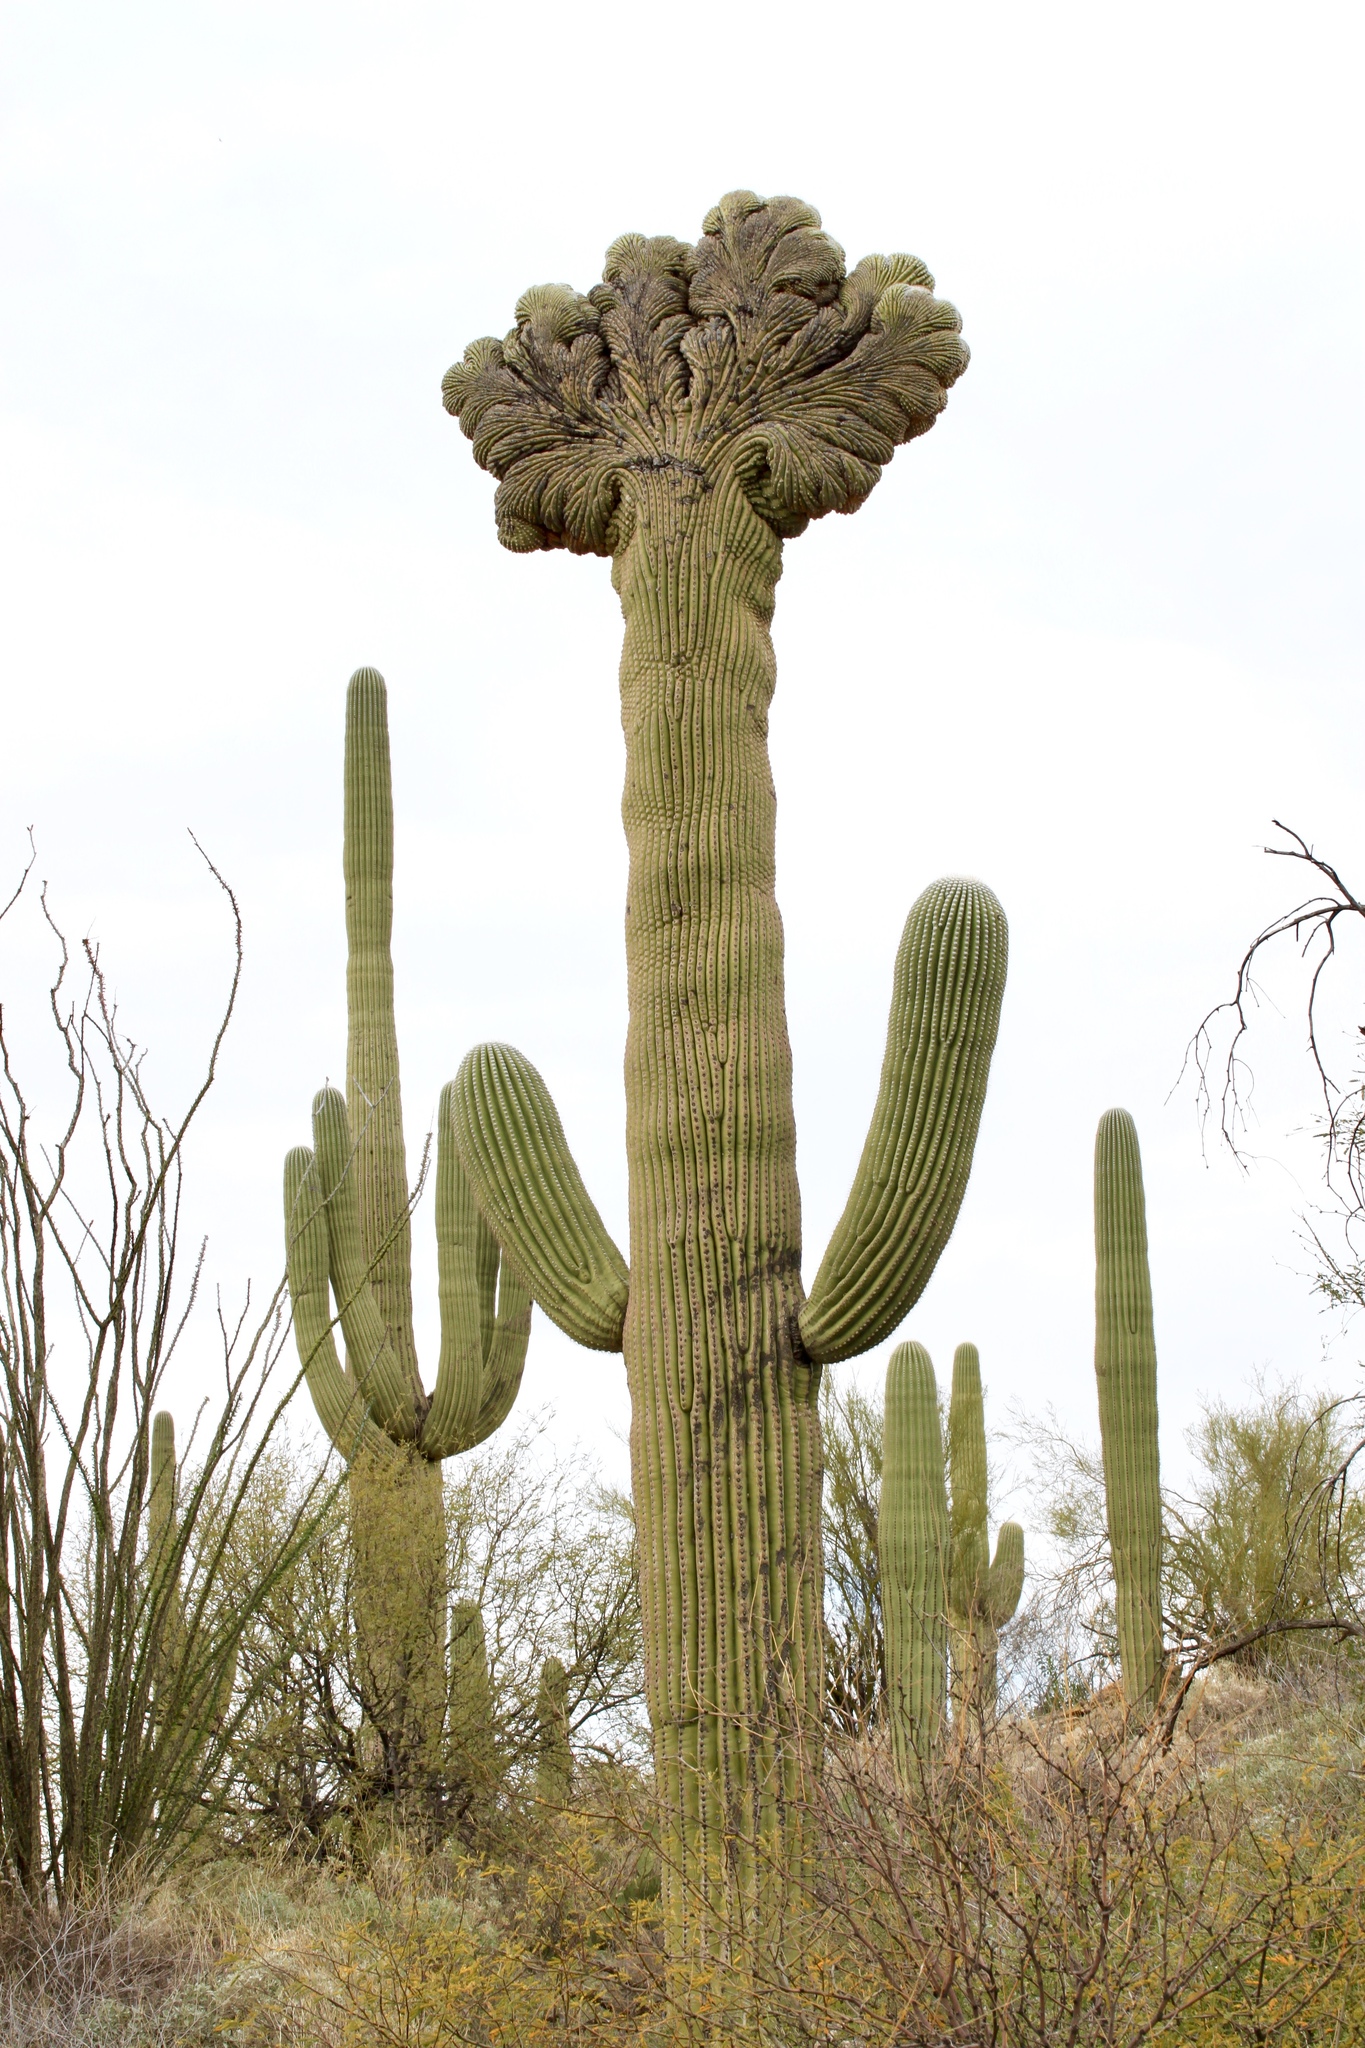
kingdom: Plantae
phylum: Tracheophyta
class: Magnoliopsida
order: Caryophyllales
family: Cactaceae
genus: Carnegiea
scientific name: Carnegiea gigantea
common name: Saguaro
